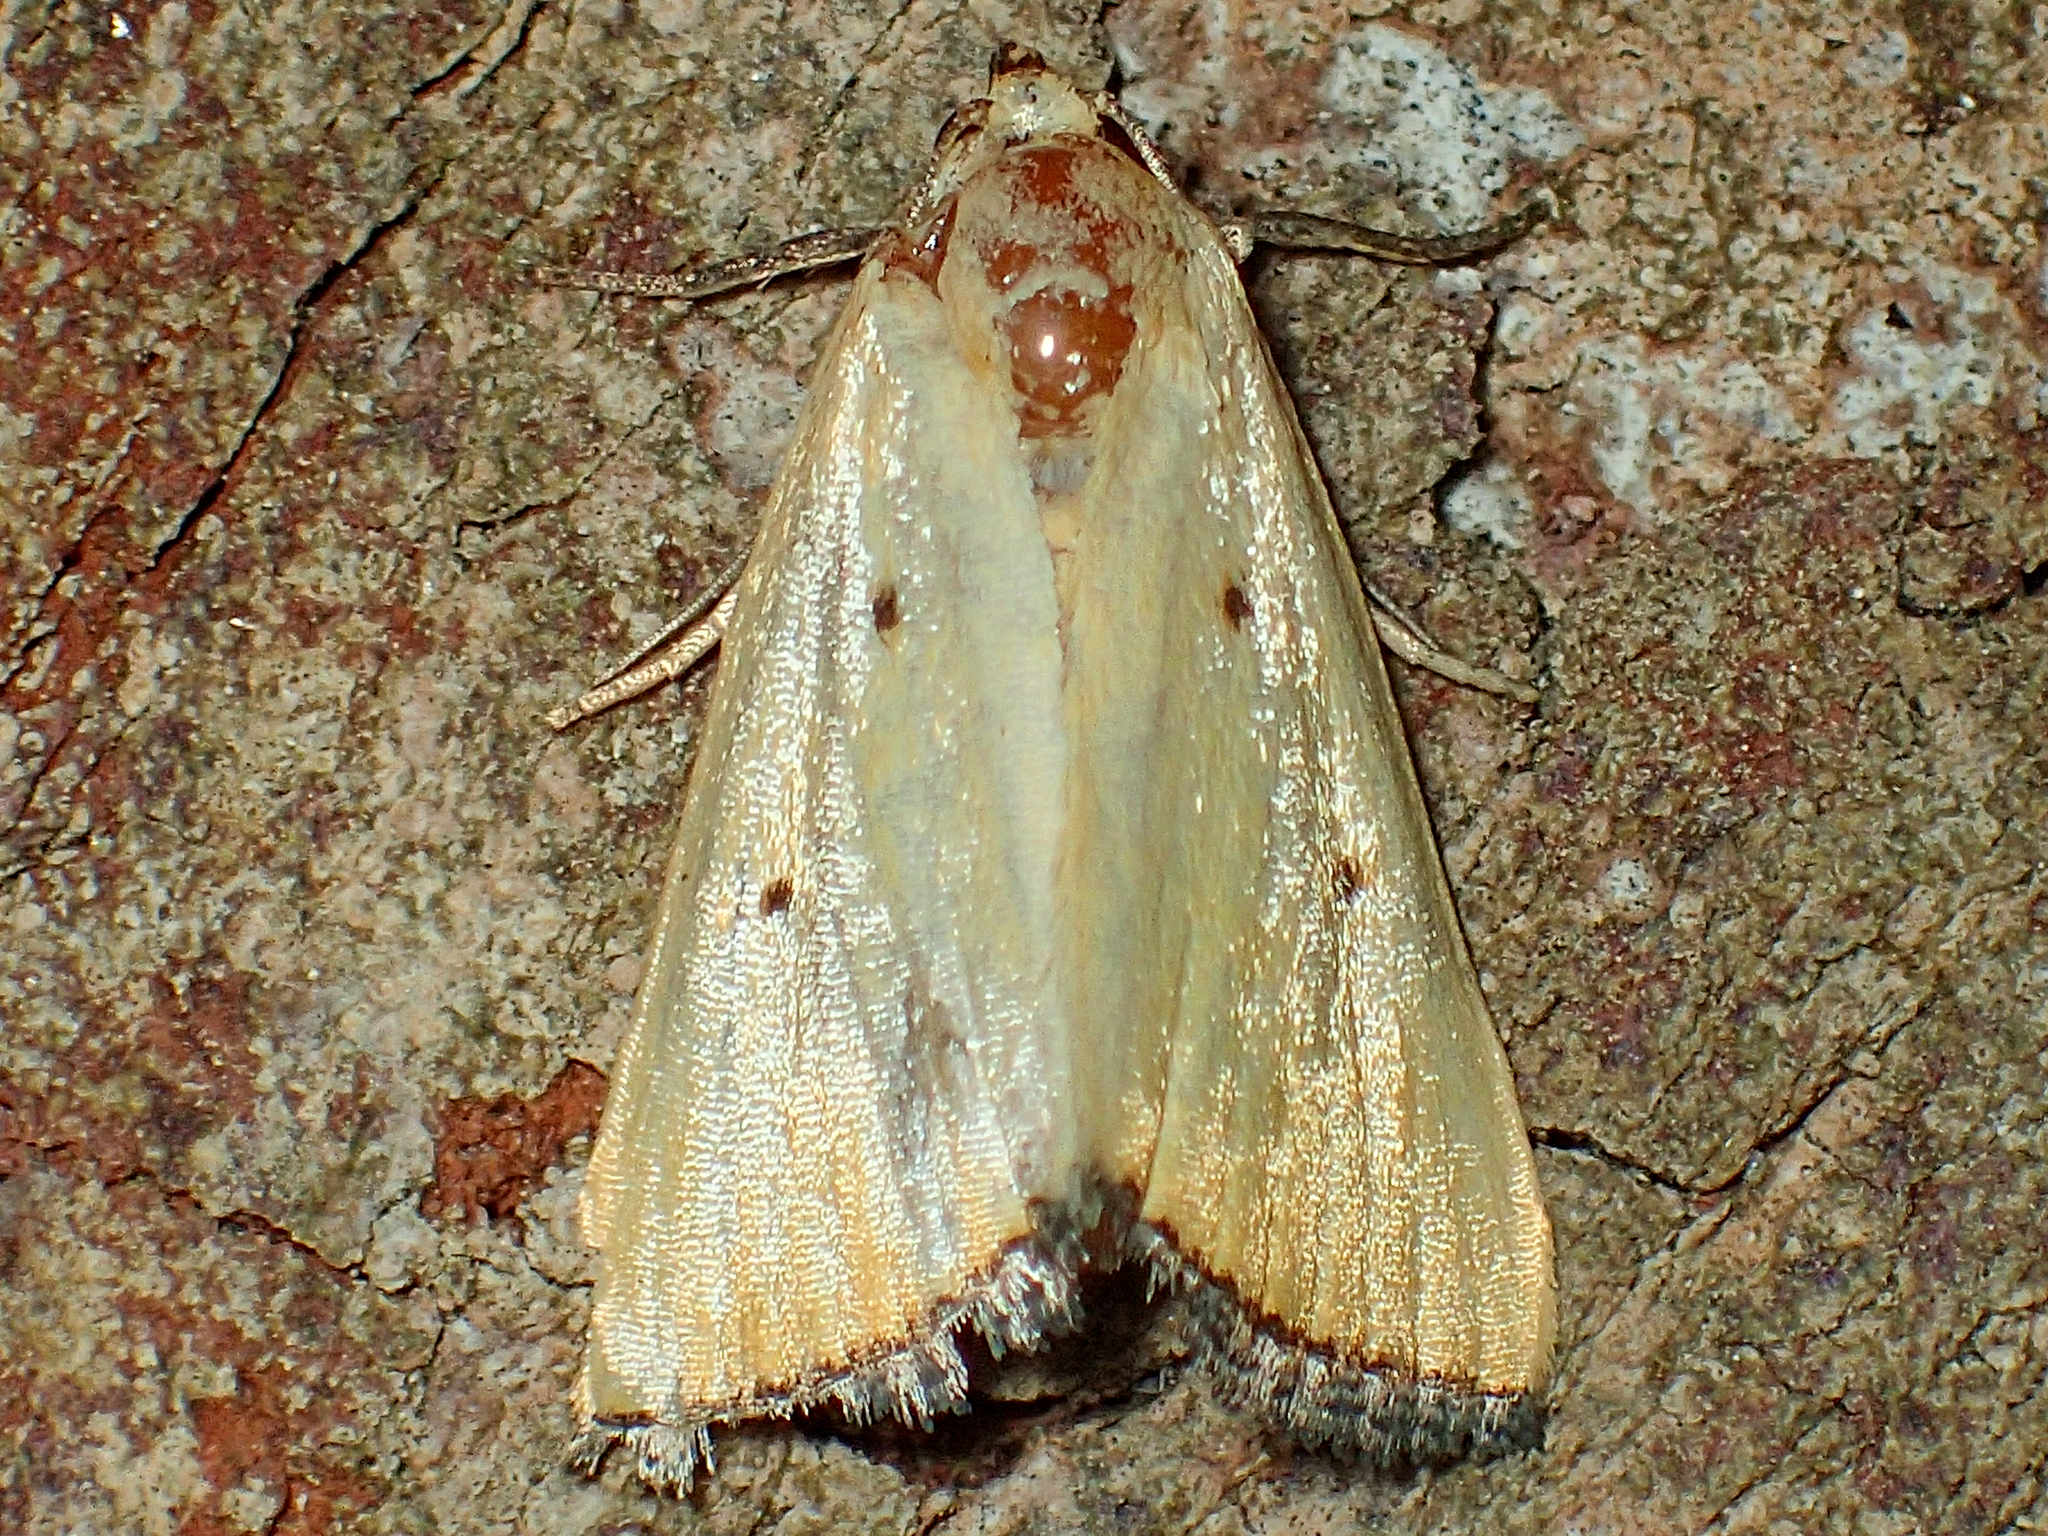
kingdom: Animalia
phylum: Arthropoda
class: Insecta
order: Lepidoptera
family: Noctuidae
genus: Marimatha
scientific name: Marimatha nigrofimbria
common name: Black-bordered lemon moth
